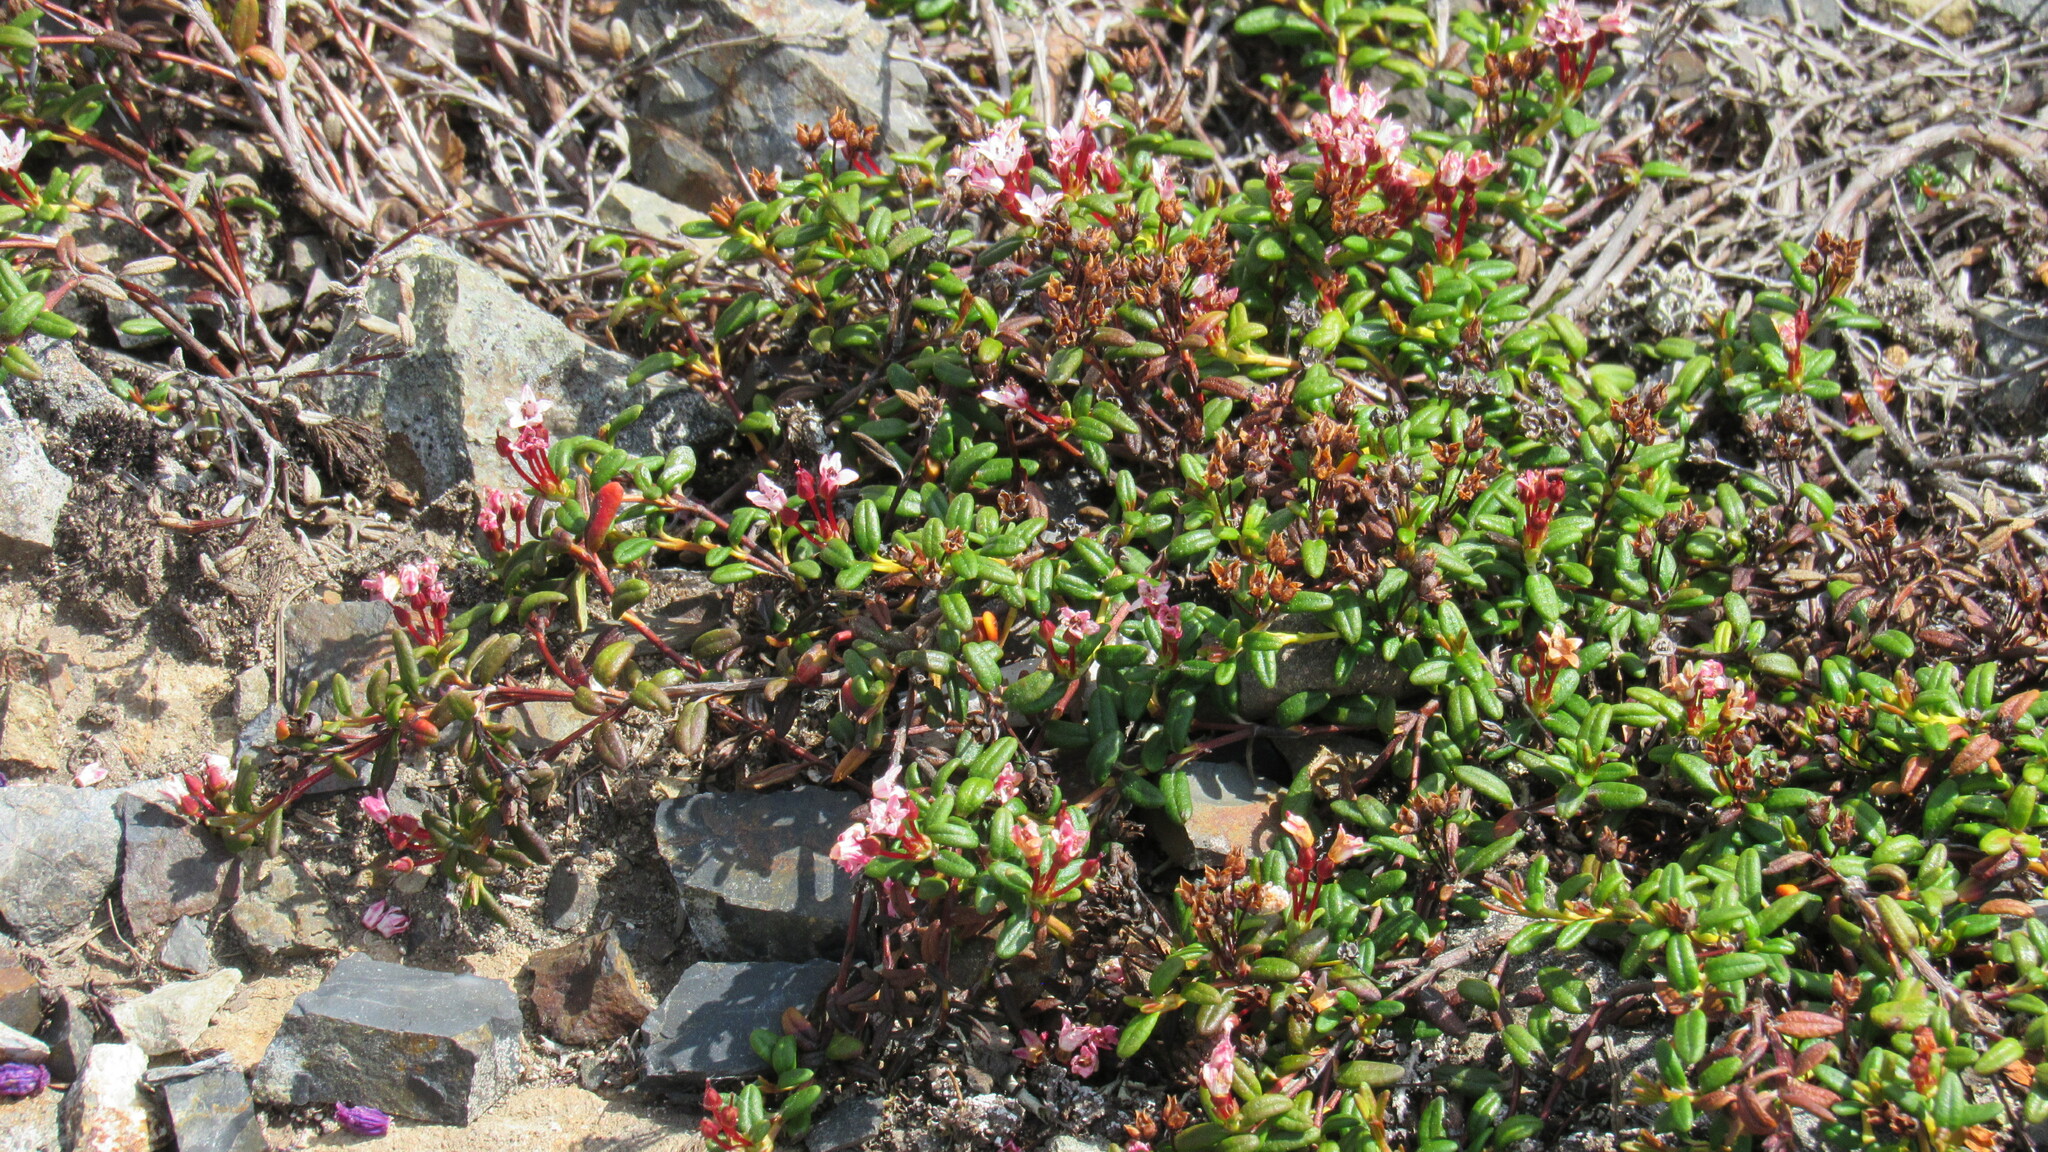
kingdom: Plantae
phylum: Tracheophyta
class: Magnoliopsida
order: Ericales
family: Ericaceae
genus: Kalmia
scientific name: Kalmia procumbens
